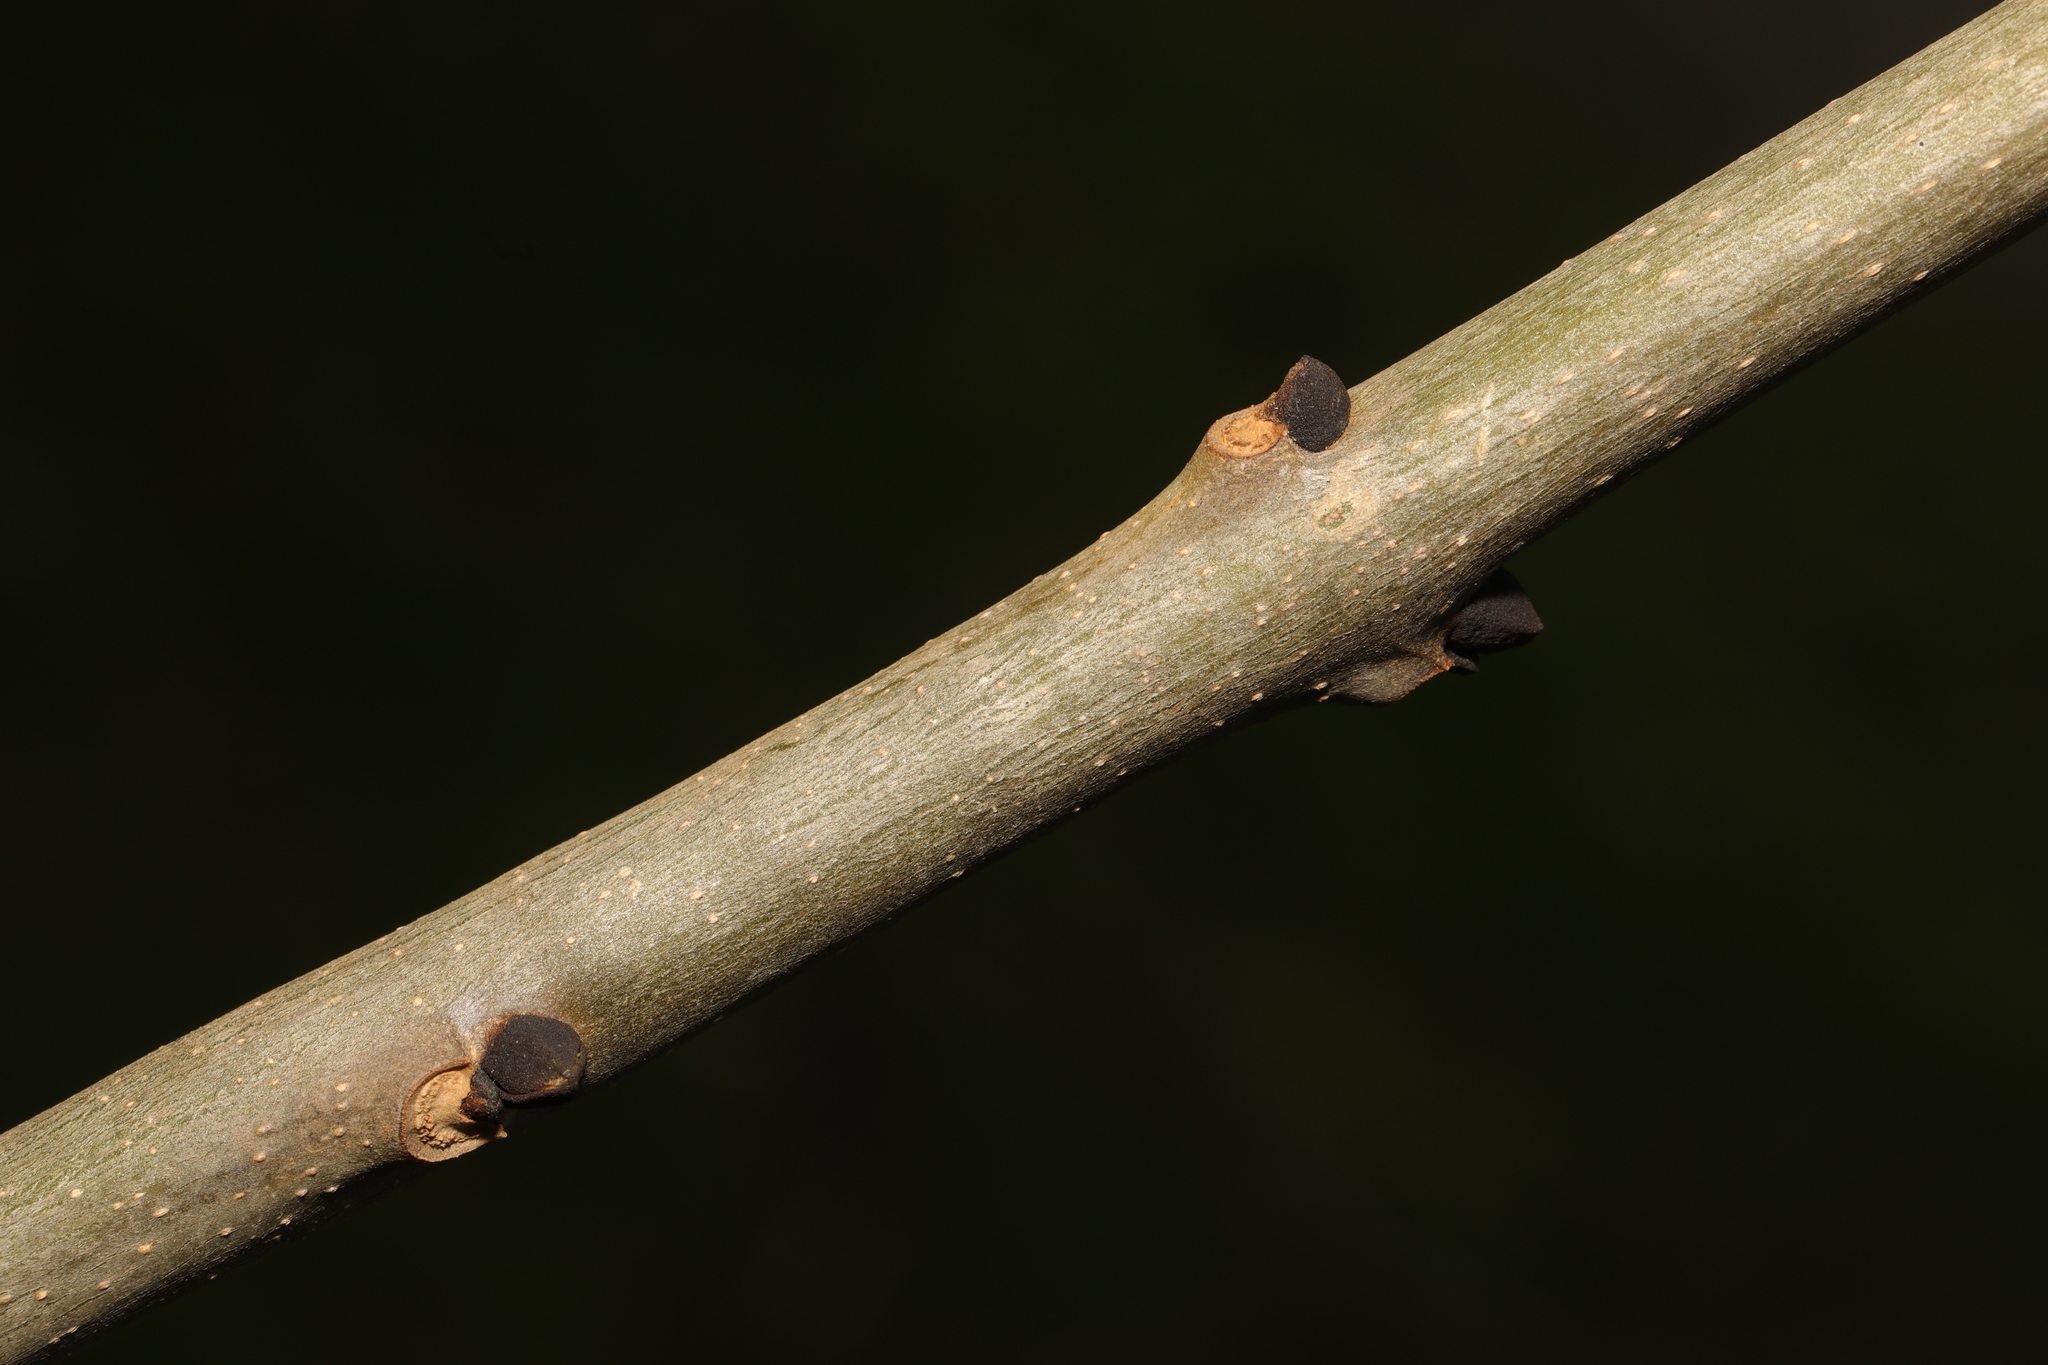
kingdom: Plantae
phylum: Tracheophyta
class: Magnoliopsida
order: Lamiales
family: Oleaceae
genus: Fraxinus
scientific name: Fraxinus excelsior
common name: European ash
